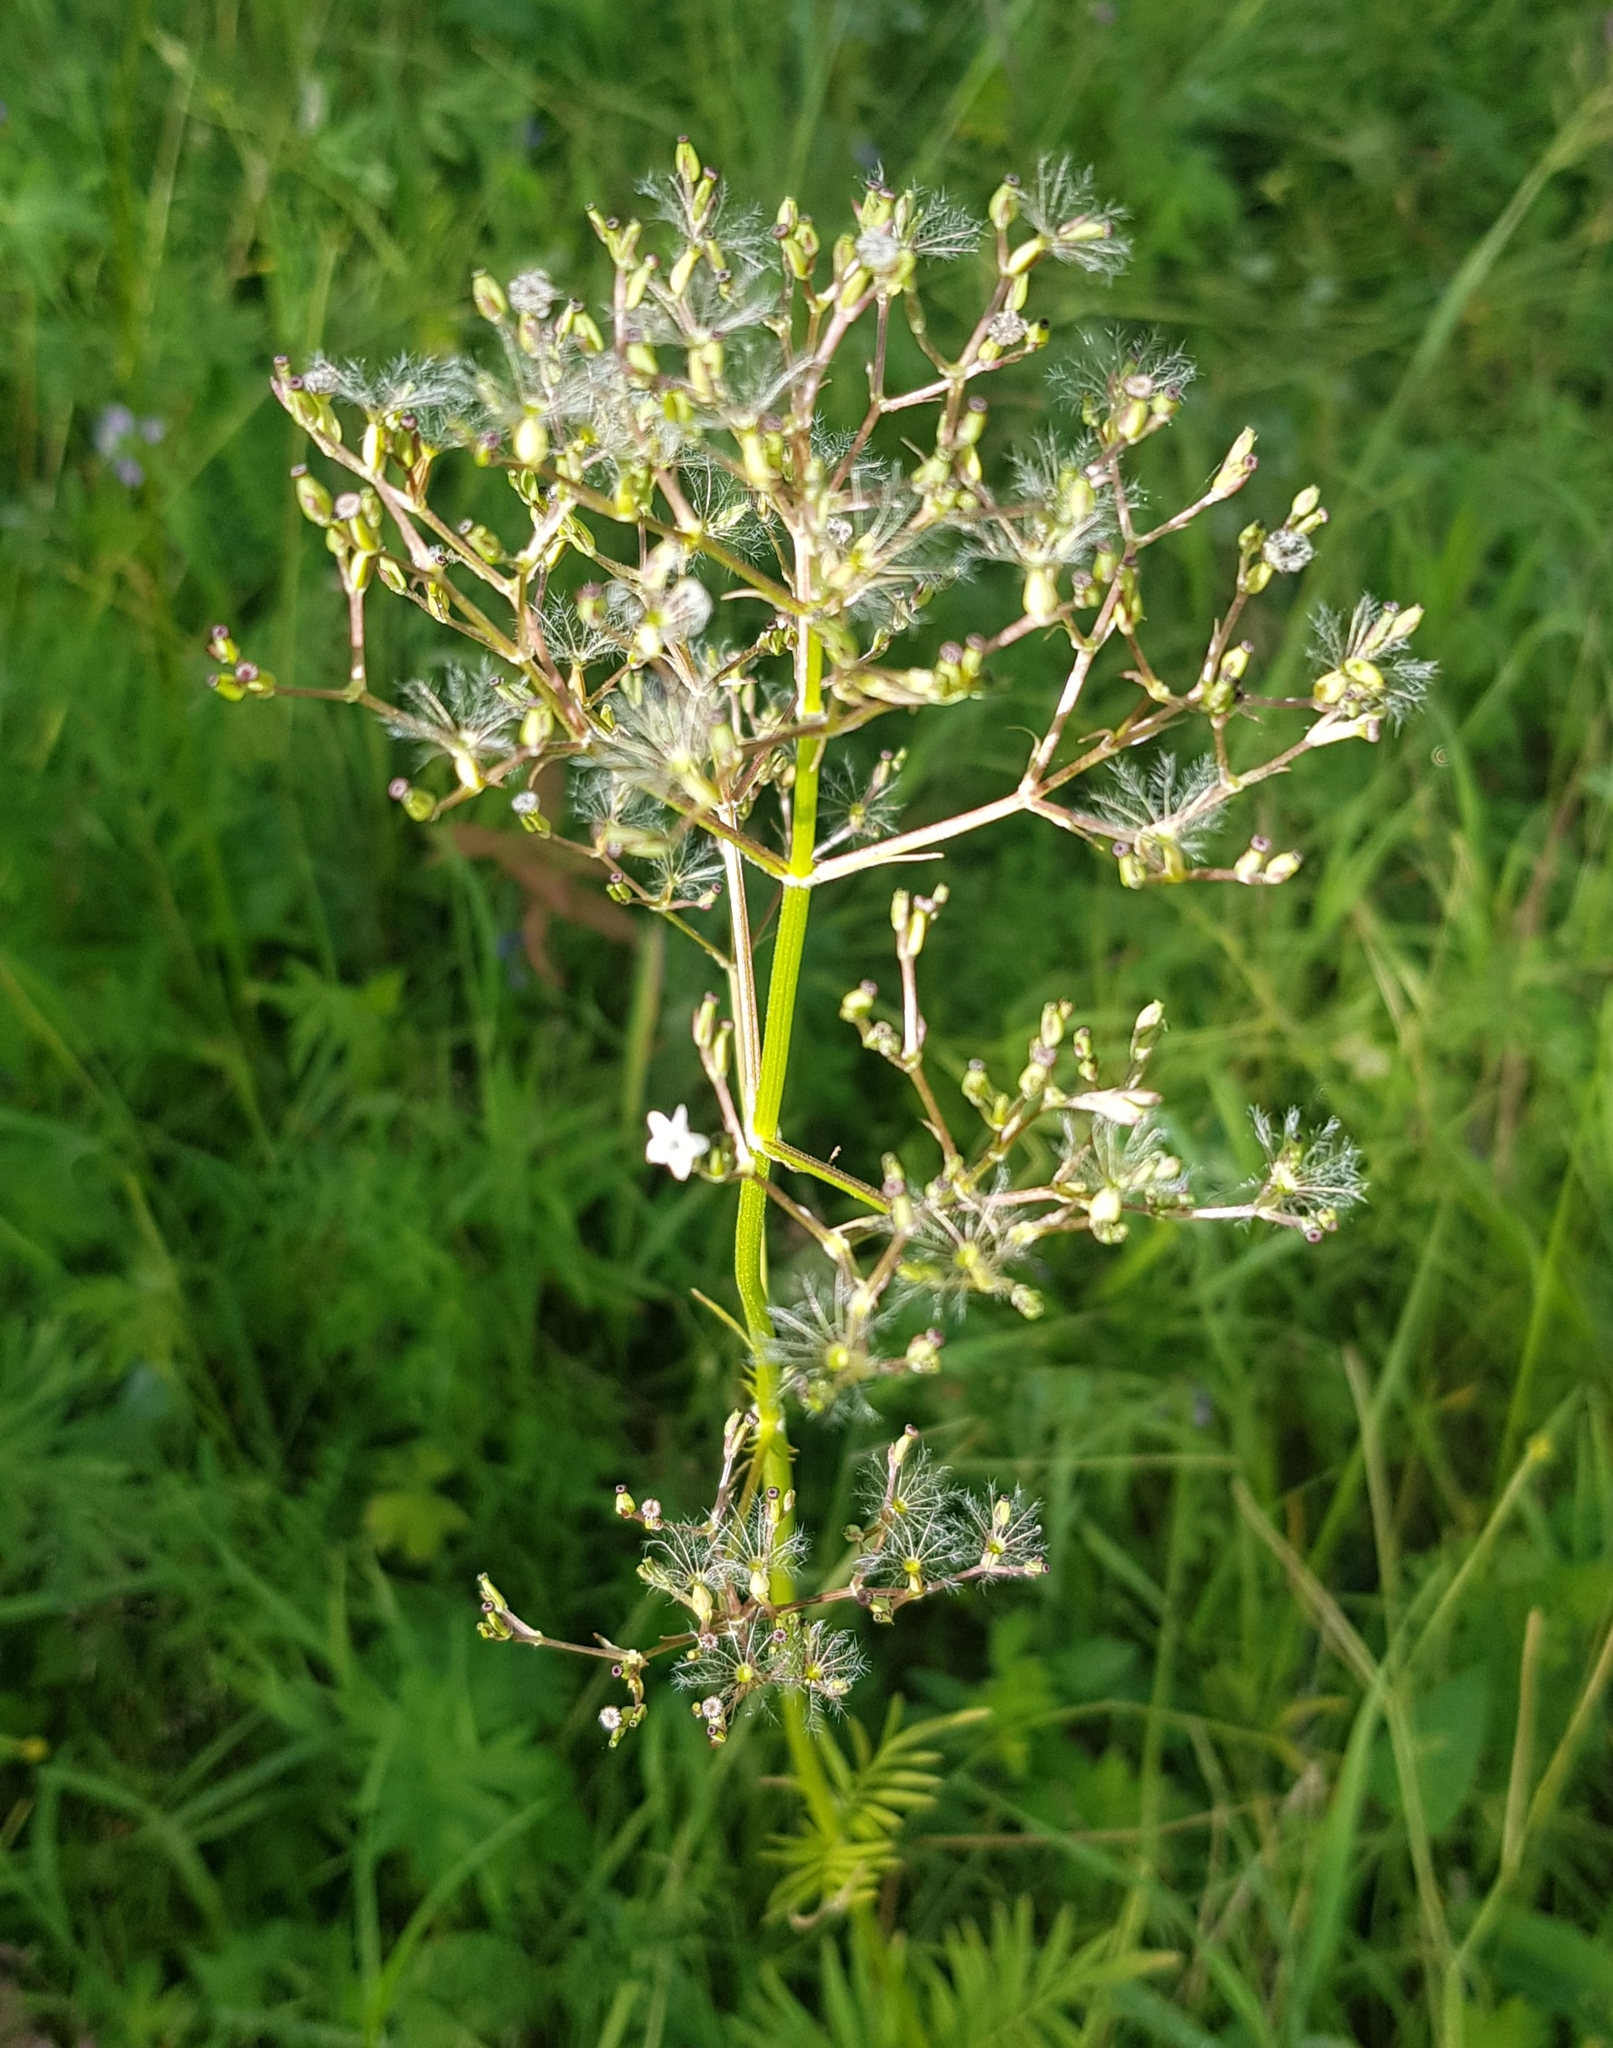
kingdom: Plantae
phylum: Tracheophyta
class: Magnoliopsida
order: Dipsacales
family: Caprifoliaceae
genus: Valeriana
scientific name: Valeriana officinalis
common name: Common valerian
